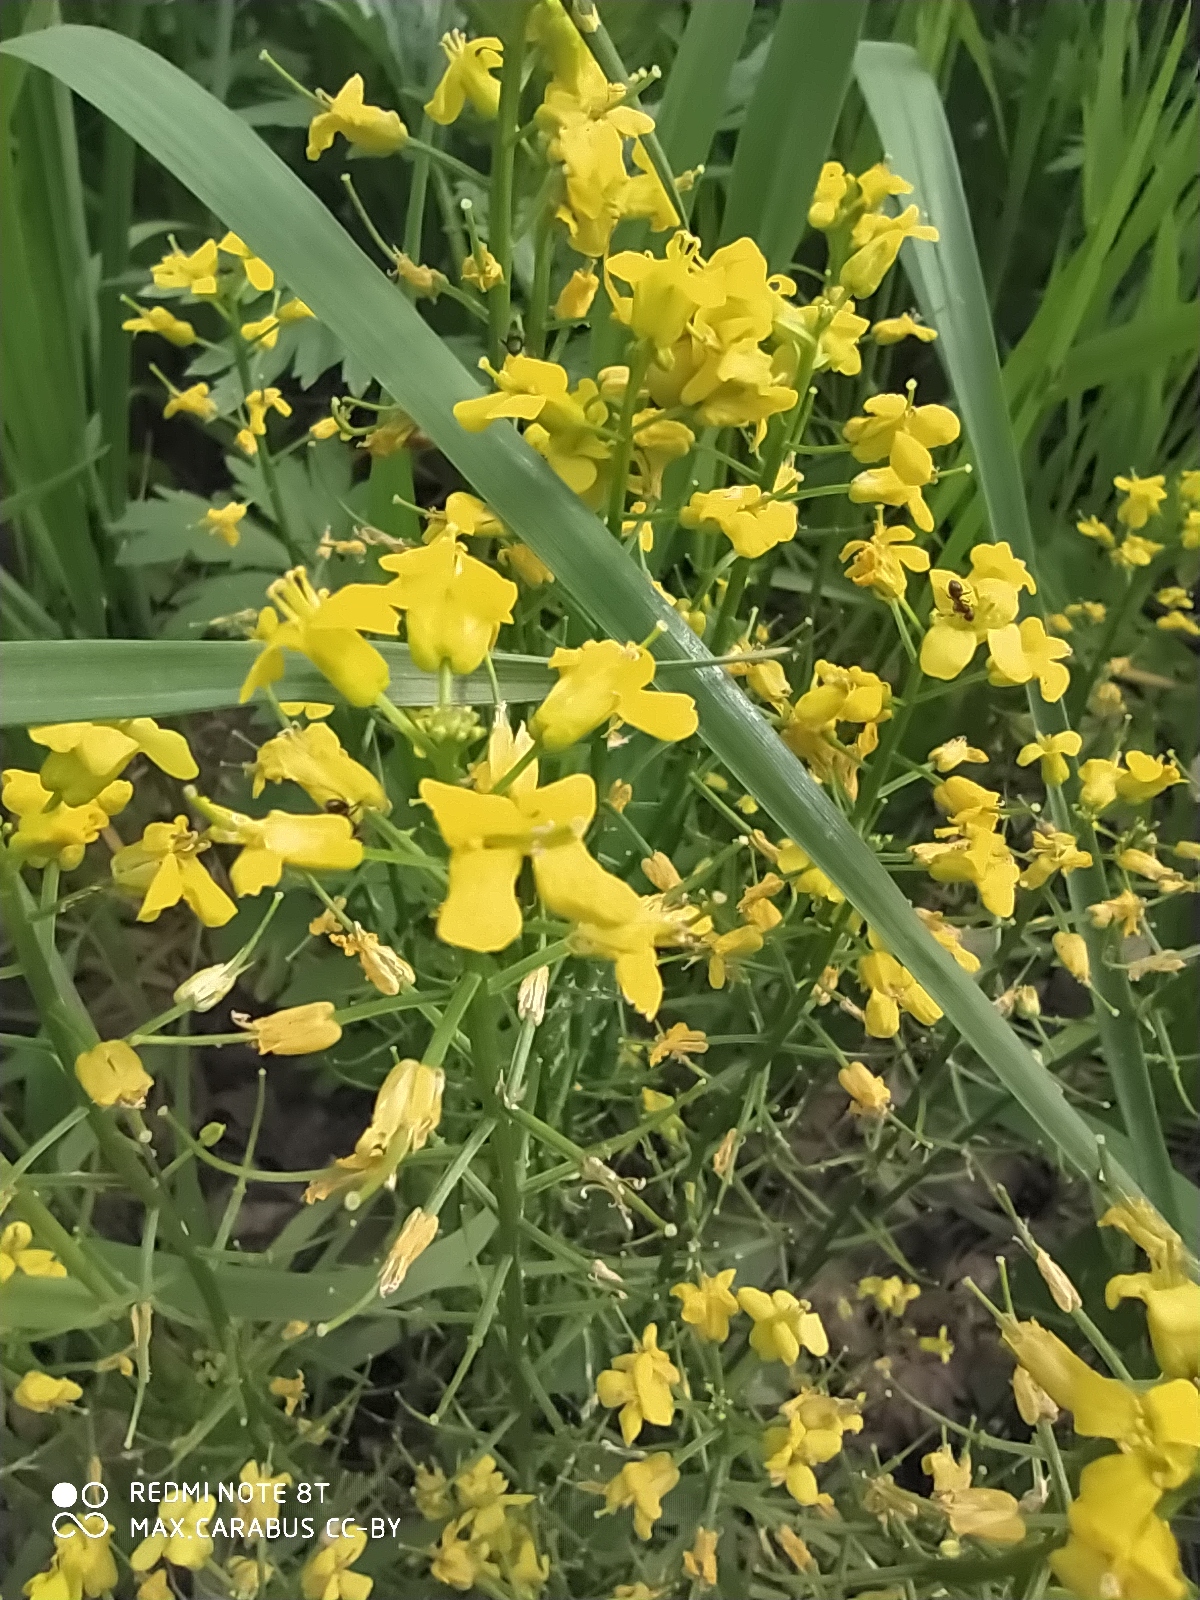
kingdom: Plantae
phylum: Tracheophyta
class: Magnoliopsida
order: Brassicales
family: Brassicaceae
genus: Barbarea
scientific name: Barbarea vulgaris
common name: Cressy-greens
